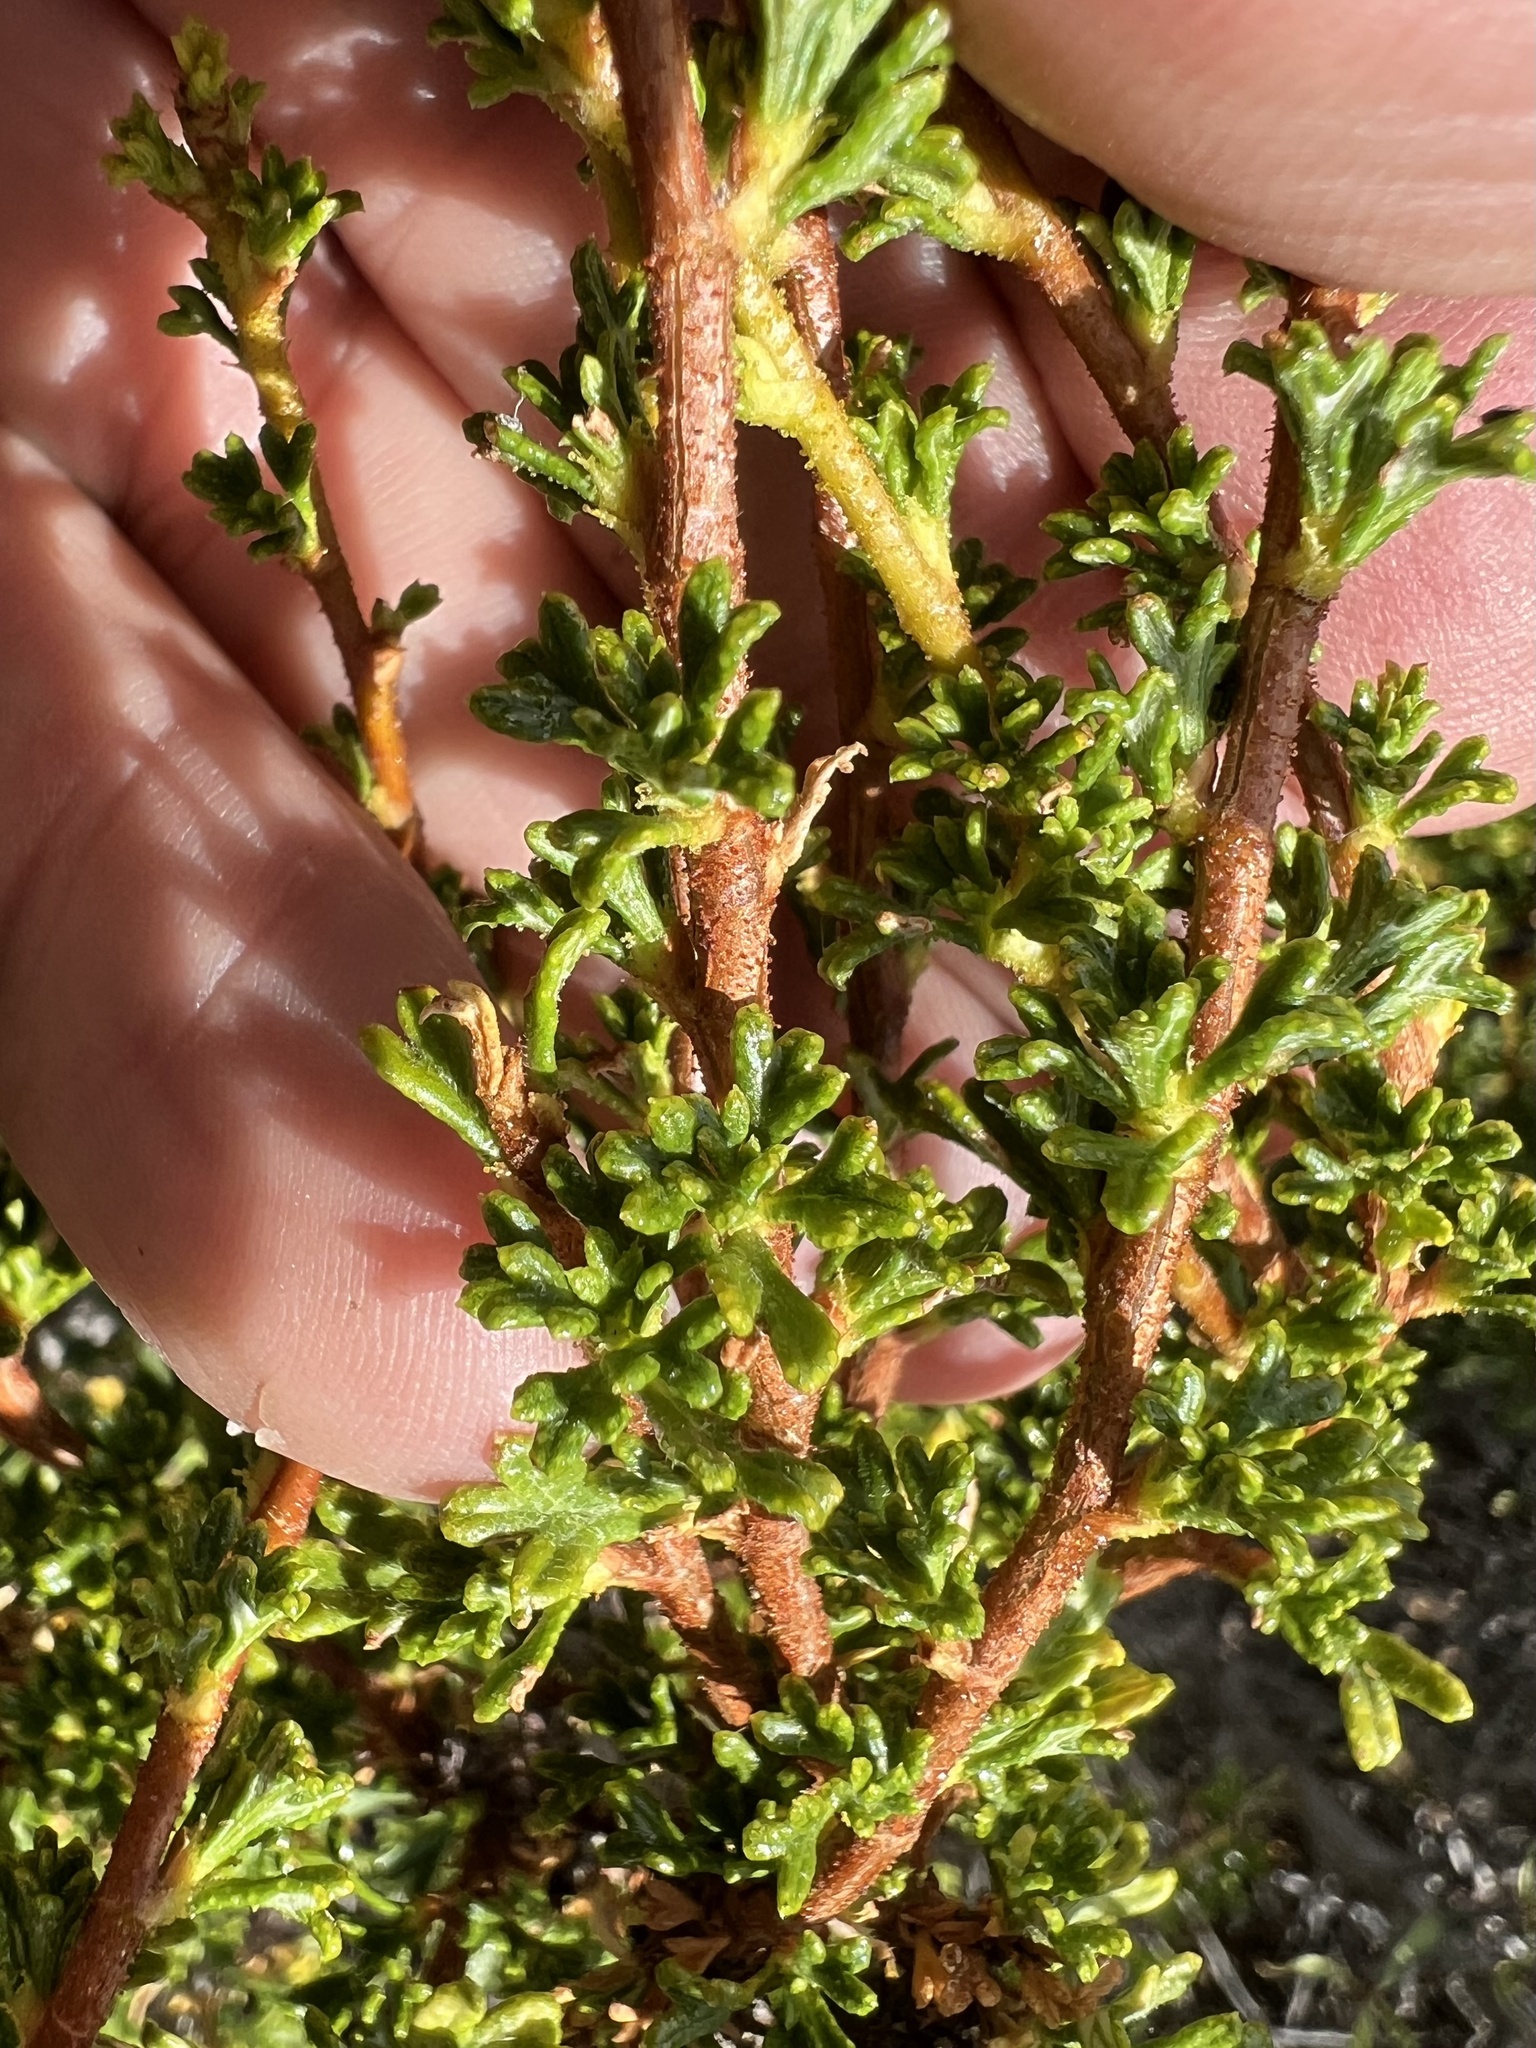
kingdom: Plantae
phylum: Tracheophyta
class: Magnoliopsida
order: Rosales
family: Rosaceae
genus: Purshia
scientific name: Purshia glandulosa
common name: Desert bitterbrush
